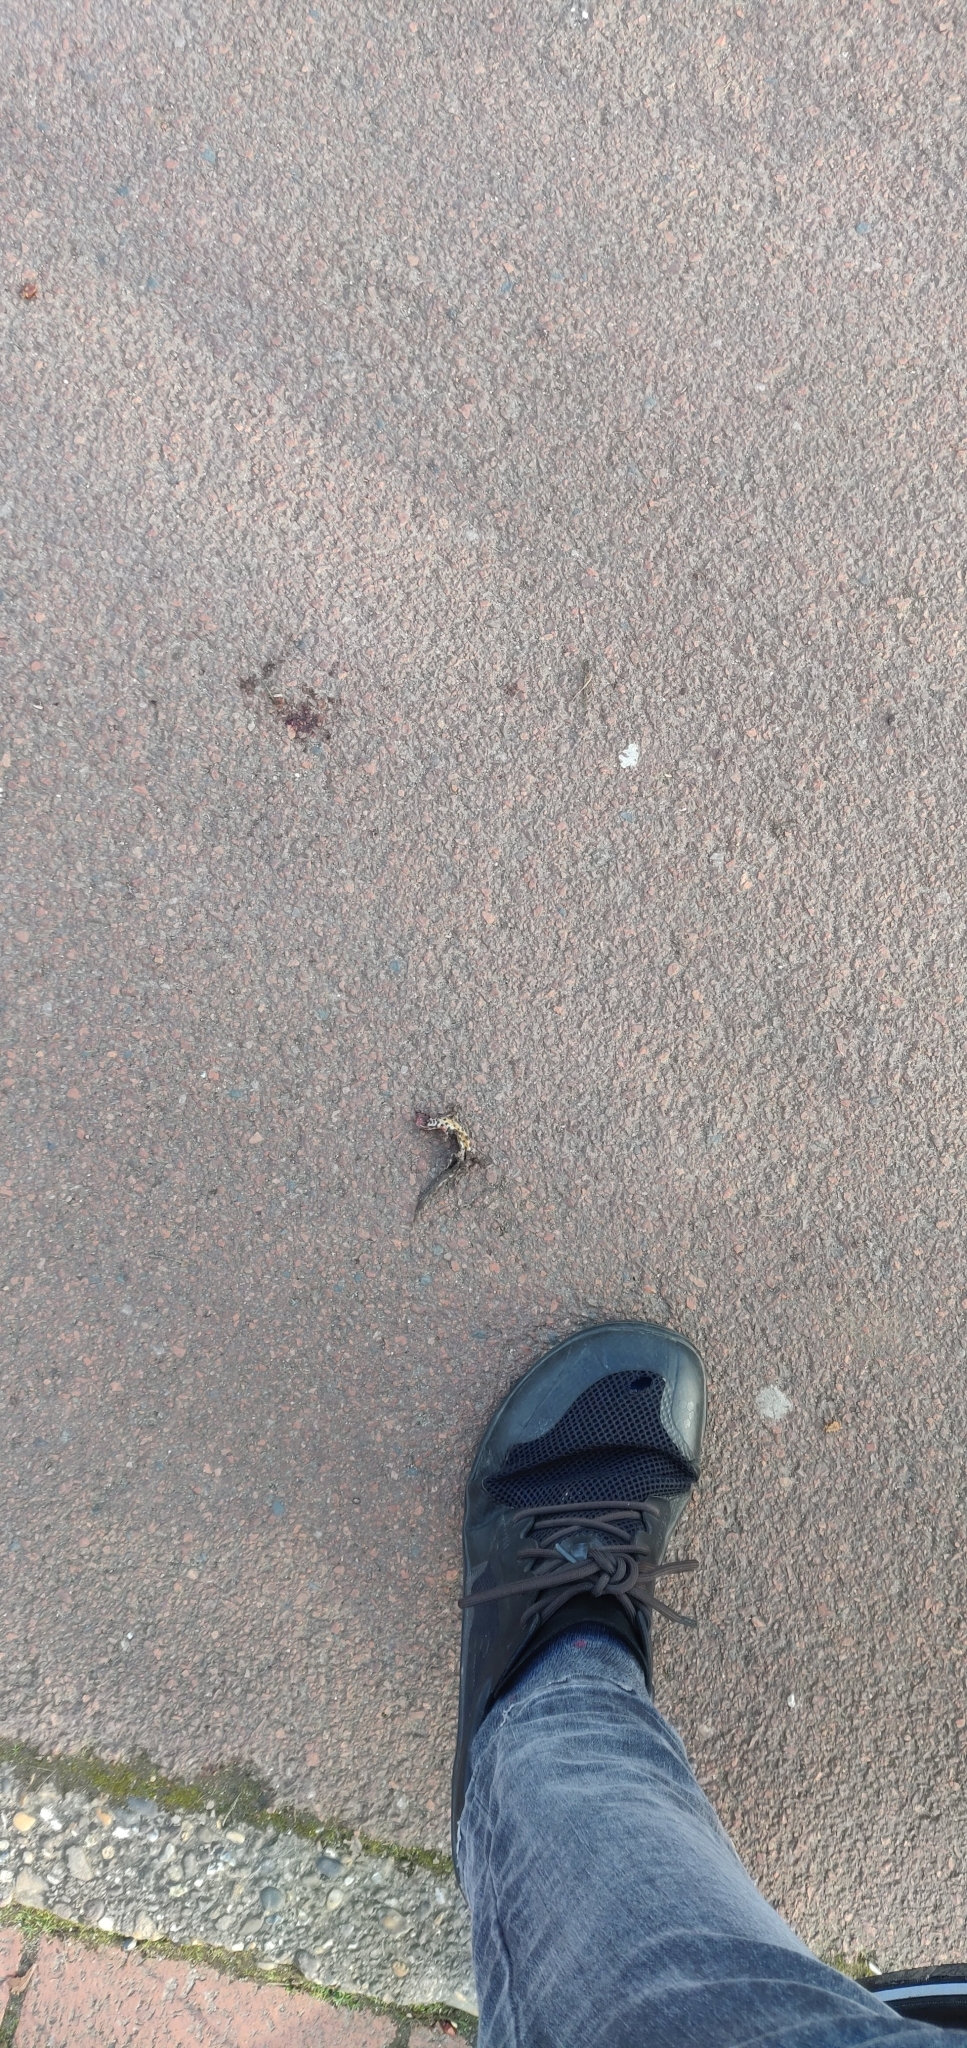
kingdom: Animalia
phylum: Chordata
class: Amphibia
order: Caudata
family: Salamandridae
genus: Lissotriton
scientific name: Lissotriton vulgaris
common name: Smooth newt
